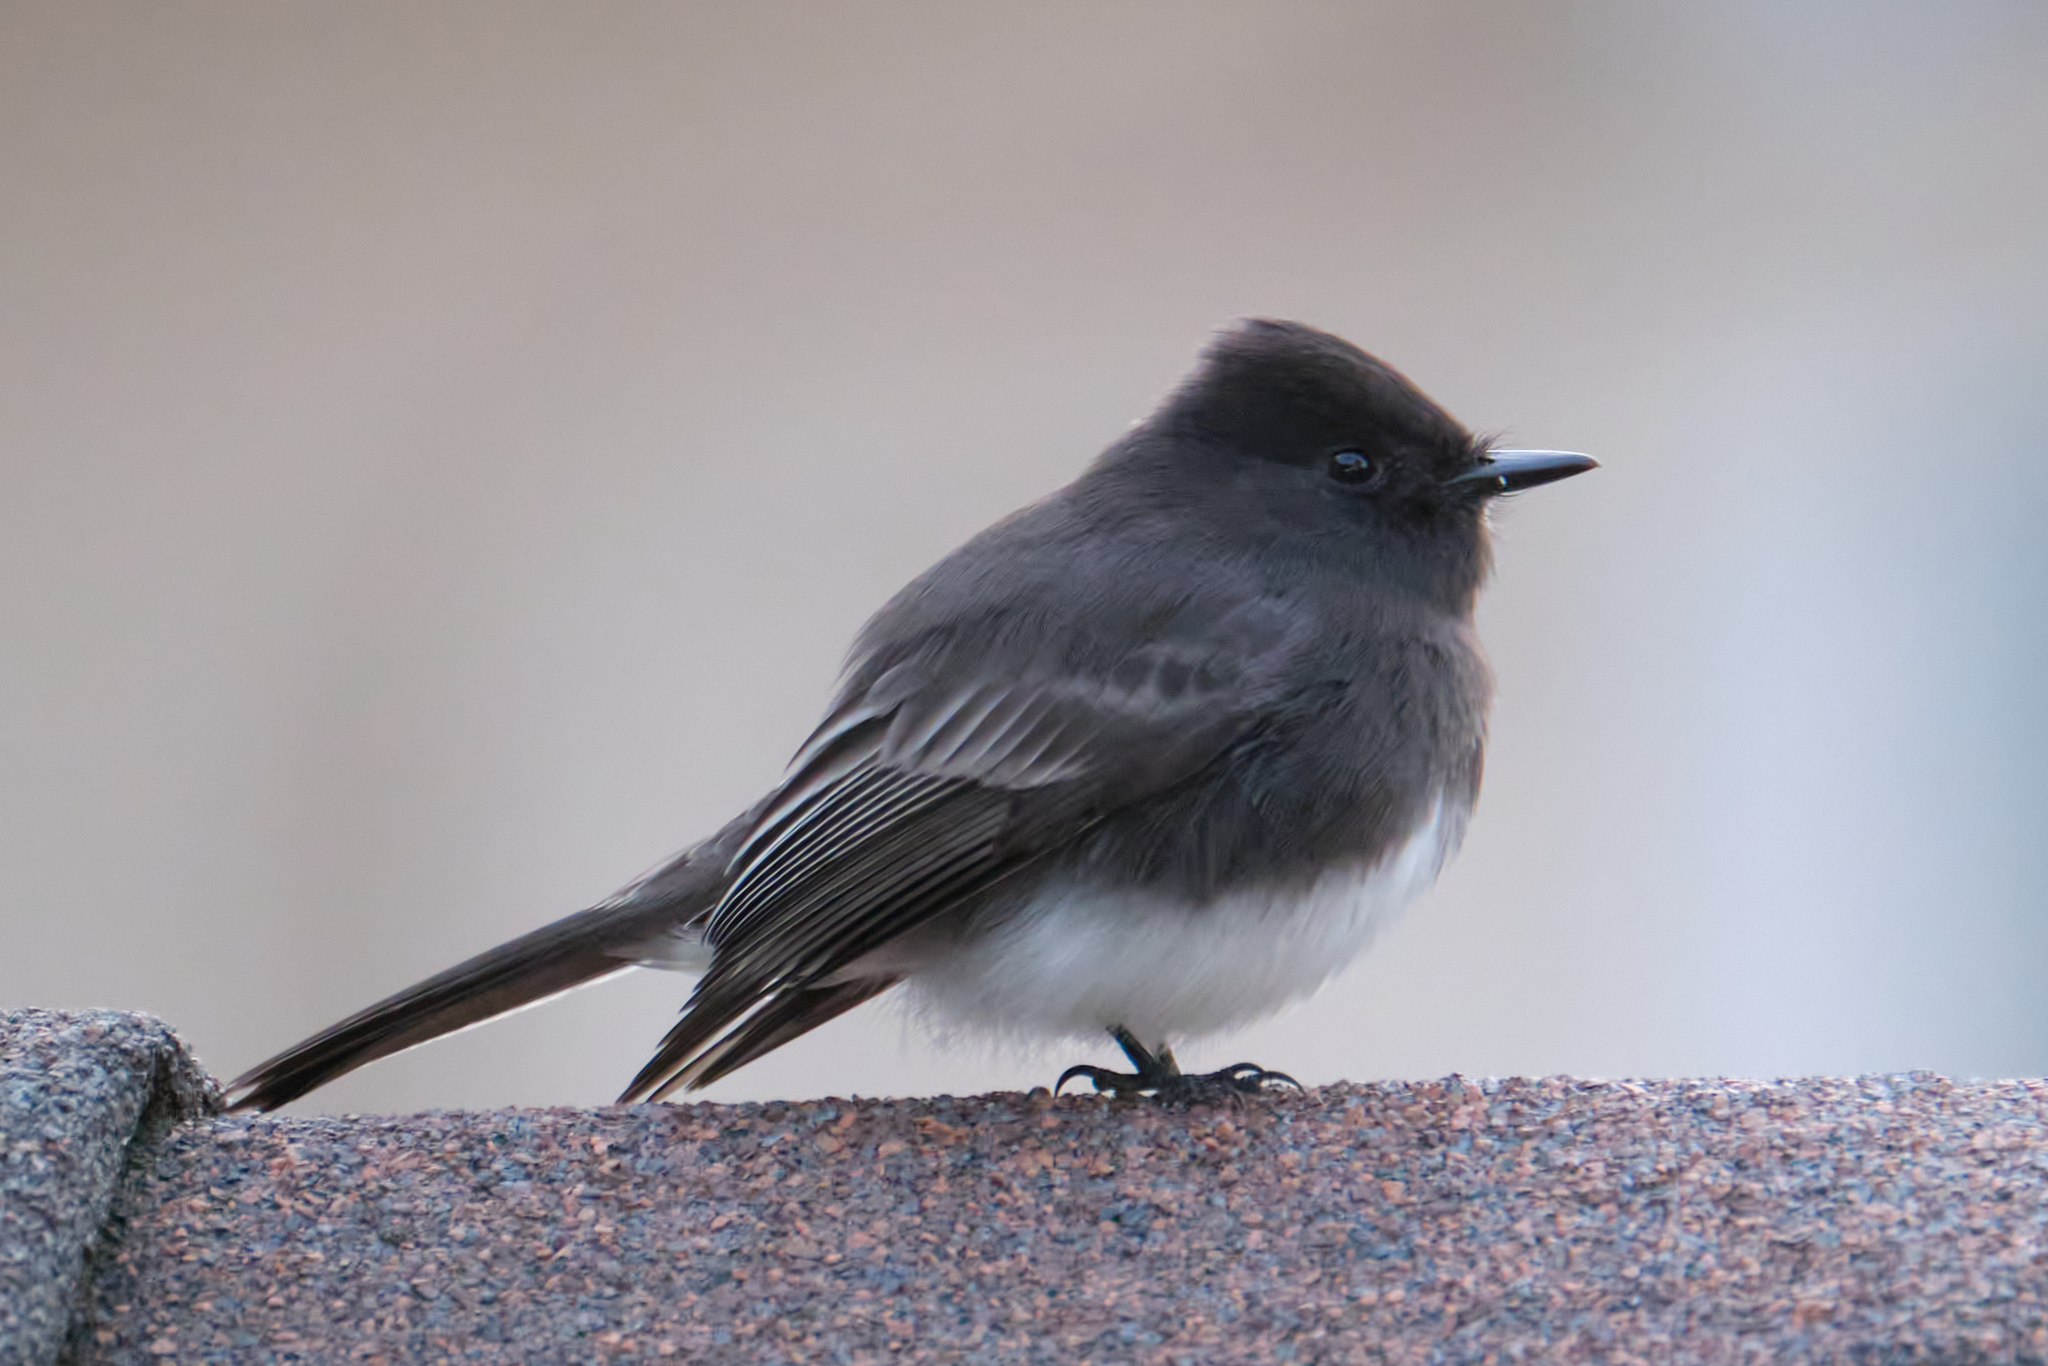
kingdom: Animalia
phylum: Chordata
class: Aves
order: Passeriformes
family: Tyrannidae
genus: Sayornis
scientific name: Sayornis nigricans
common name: Black phoebe
